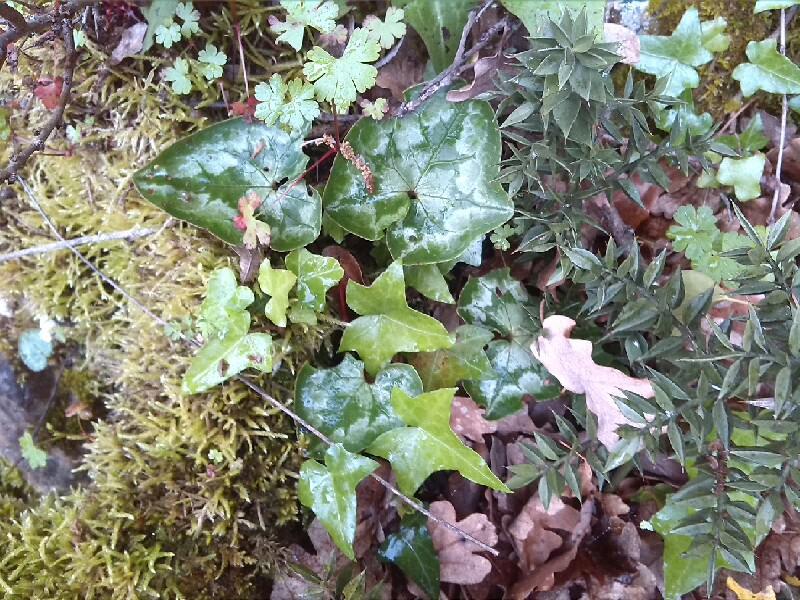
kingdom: Plantae
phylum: Tracheophyta
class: Magnoliopsida
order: Ericales
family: Primulaceae
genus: Cyclamen
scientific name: Cyclamen hederifolium
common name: Sowbread
